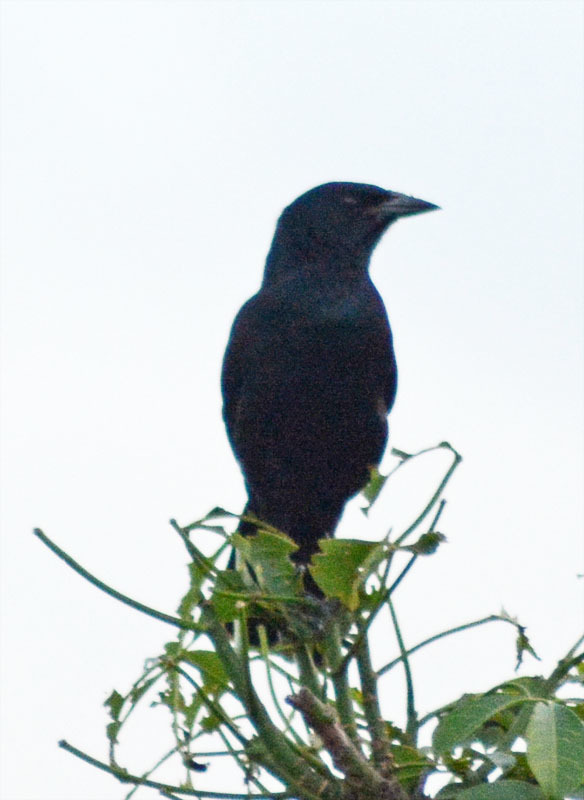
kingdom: Animalia
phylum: Chordata
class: Aves
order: Passeriformes
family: Icteridae
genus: Dives
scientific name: Dives dives
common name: Melodious blackbird
